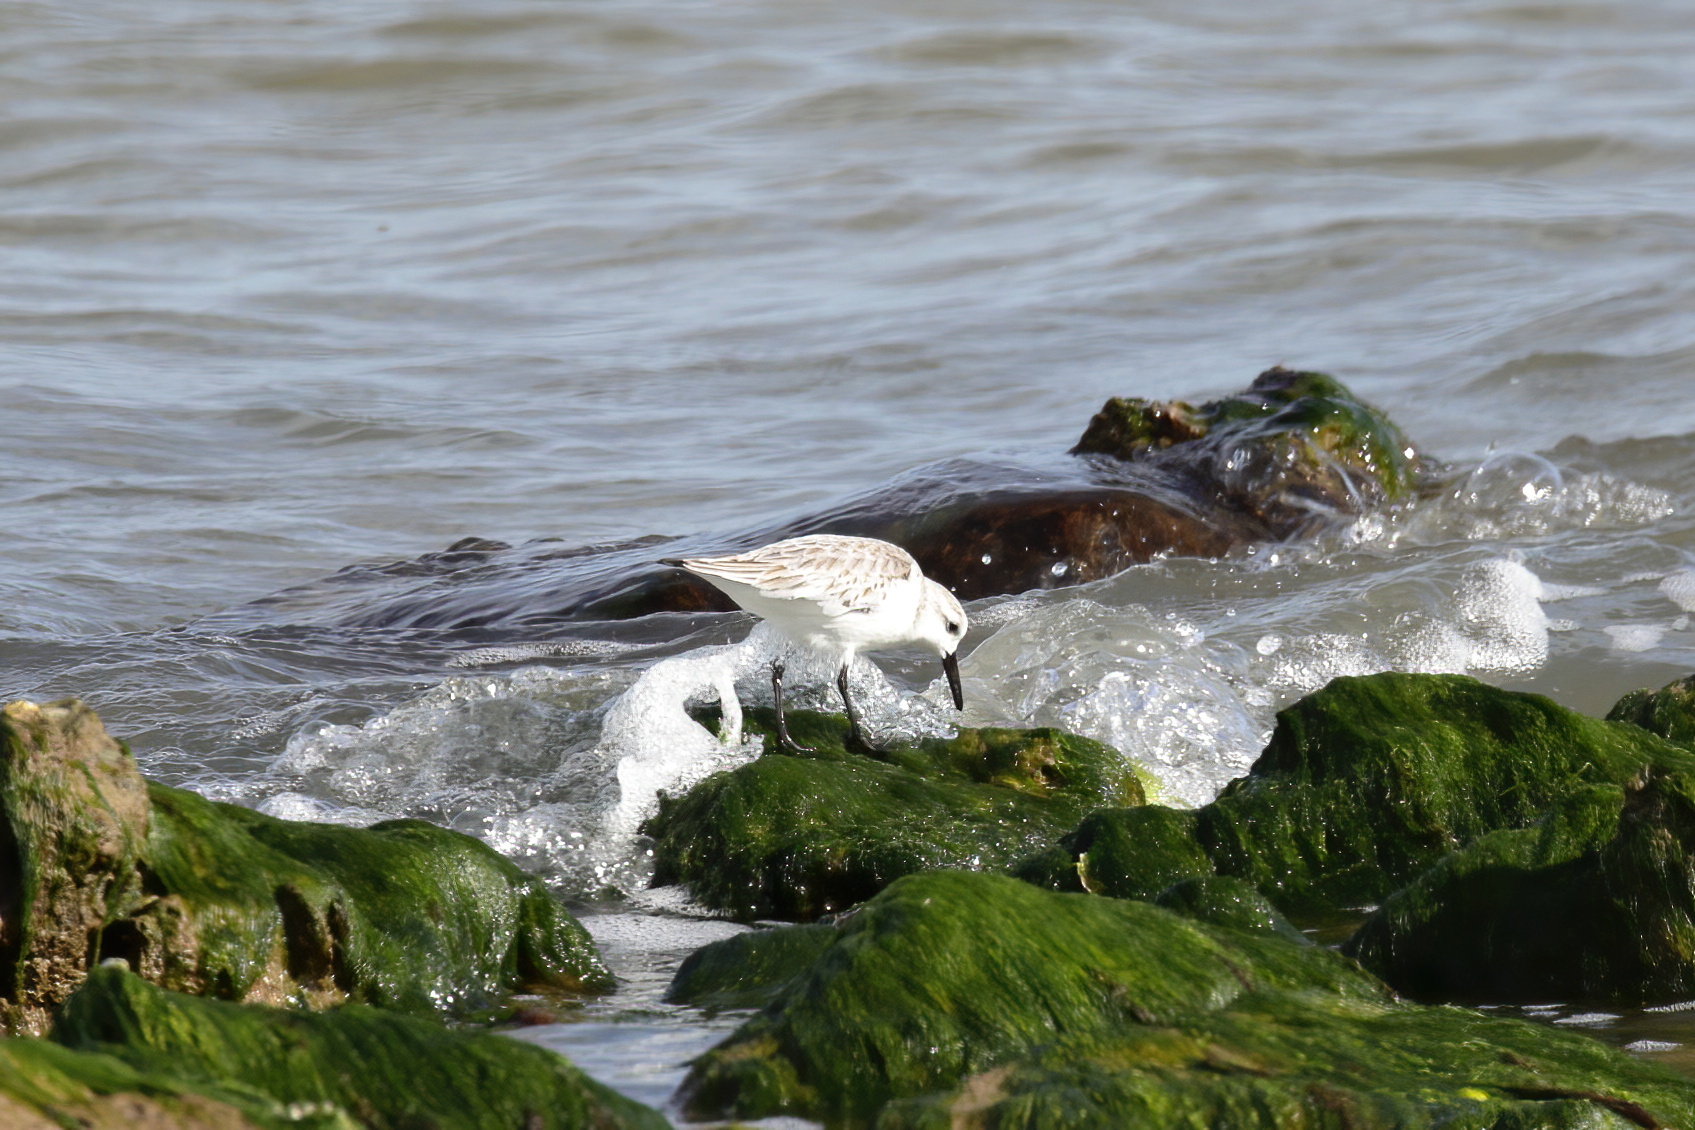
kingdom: Animalia
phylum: Chordata
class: Aves
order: Charadriiformes
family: Scolopacidae
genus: Calidris
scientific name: Calidris alba
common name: Sanderling
